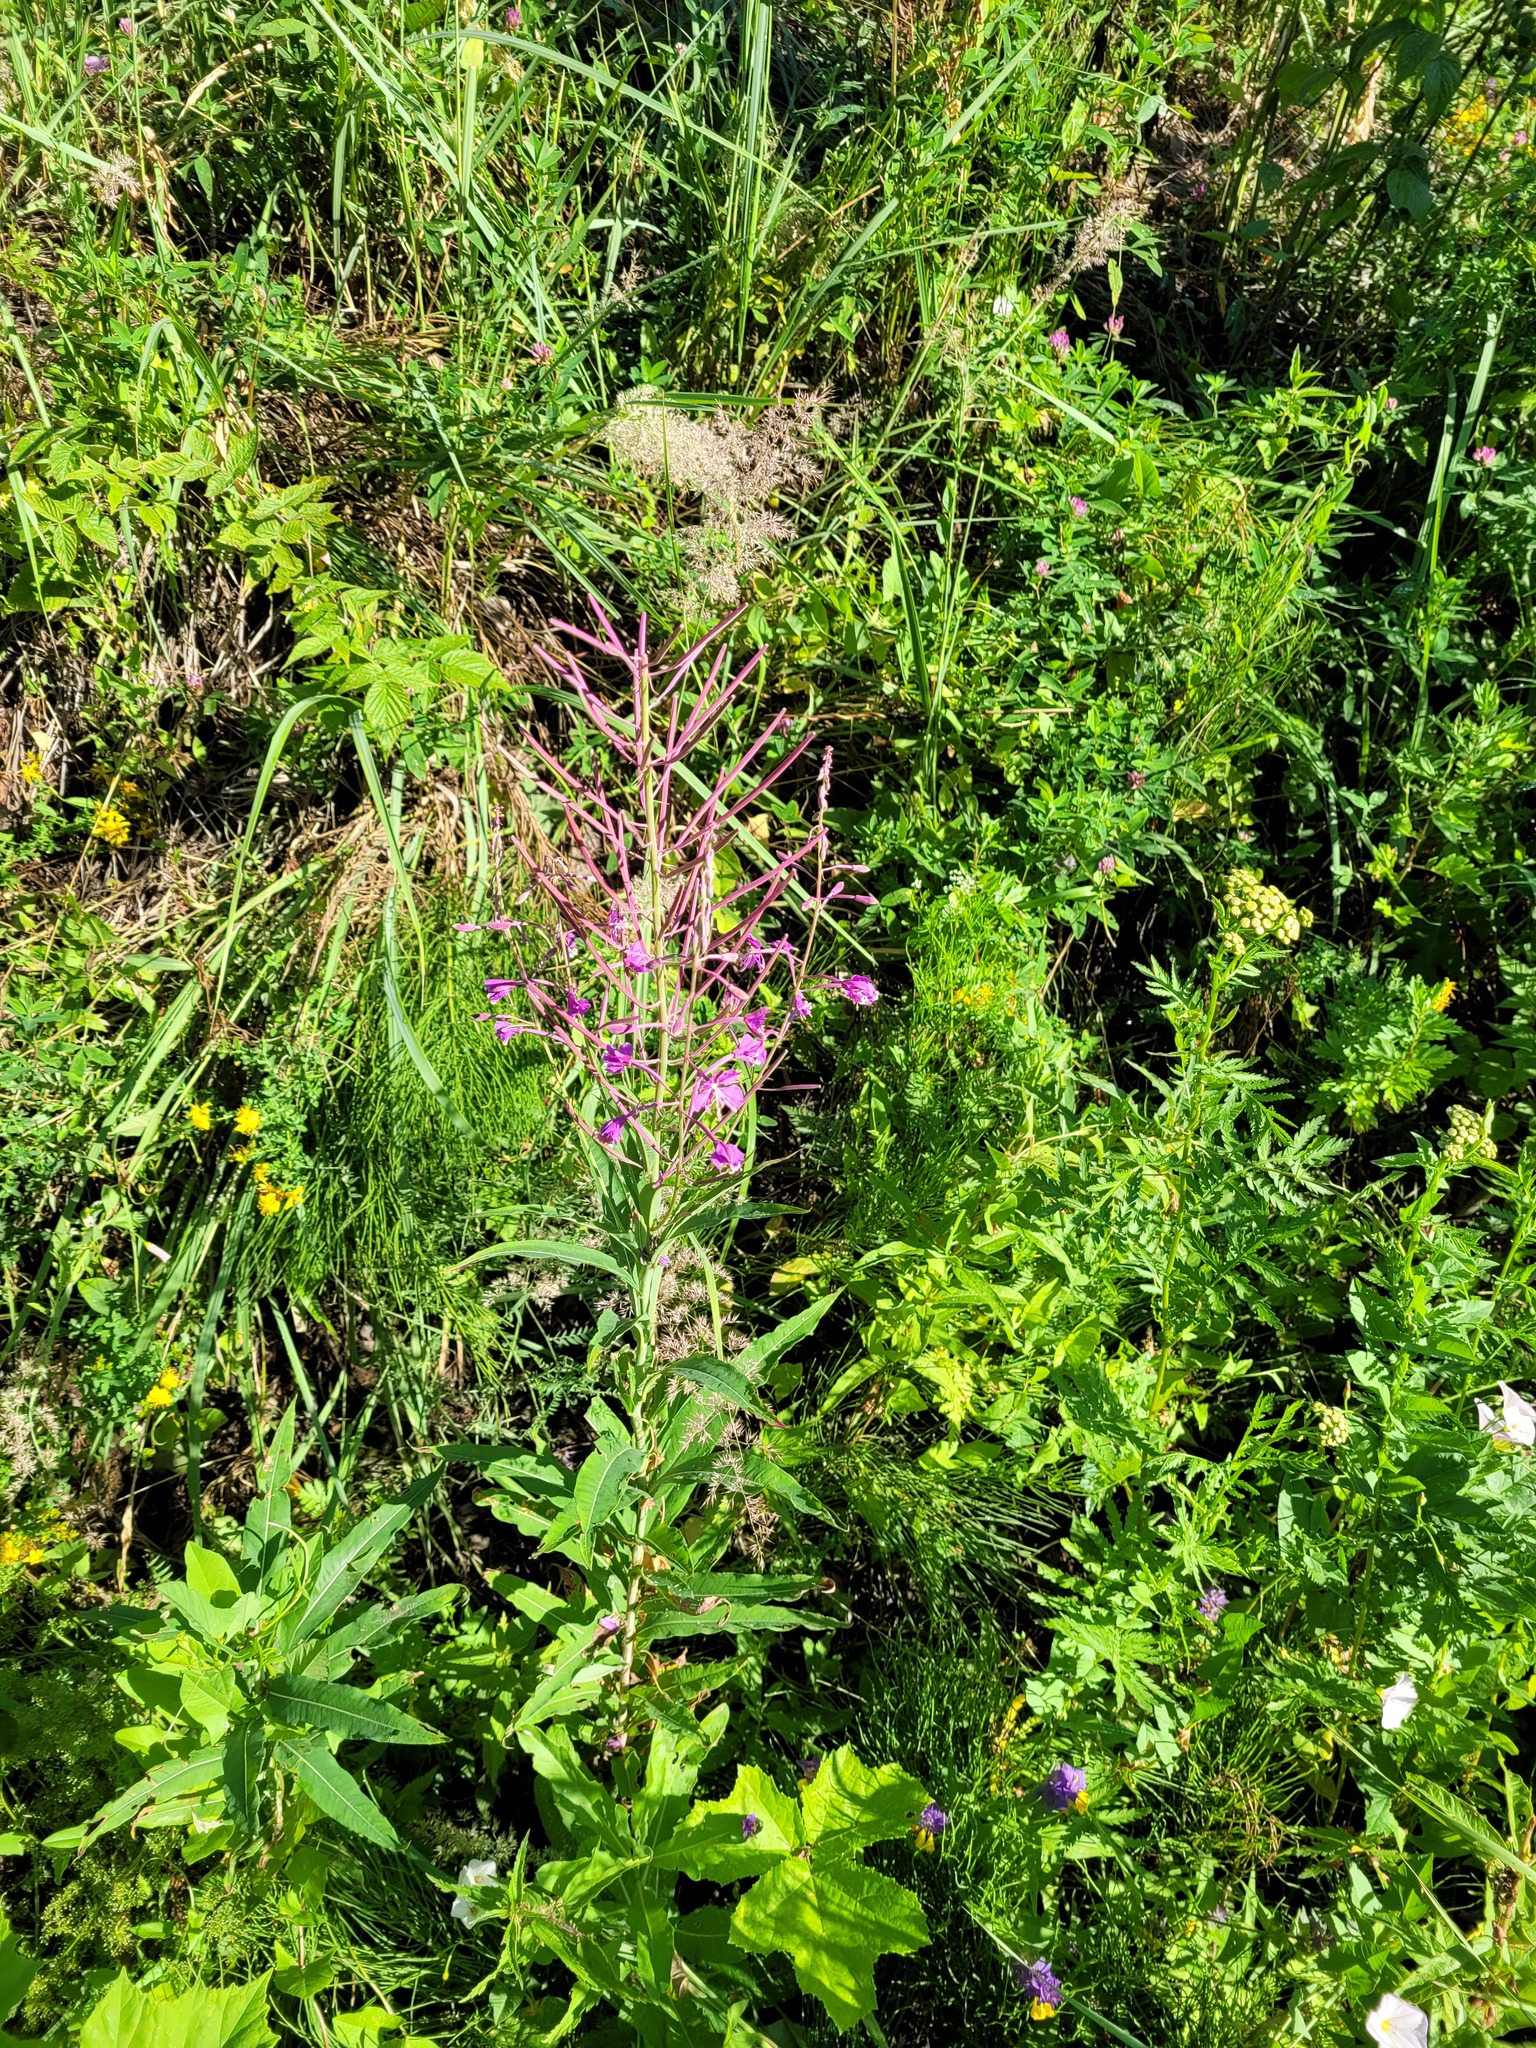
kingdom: Plantae
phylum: Tracheophyta
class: Magnoliopsida
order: Myrtales
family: Onagraceae
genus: Chamaenerion
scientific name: Chamaenerion angustifolium
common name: Fireweed
